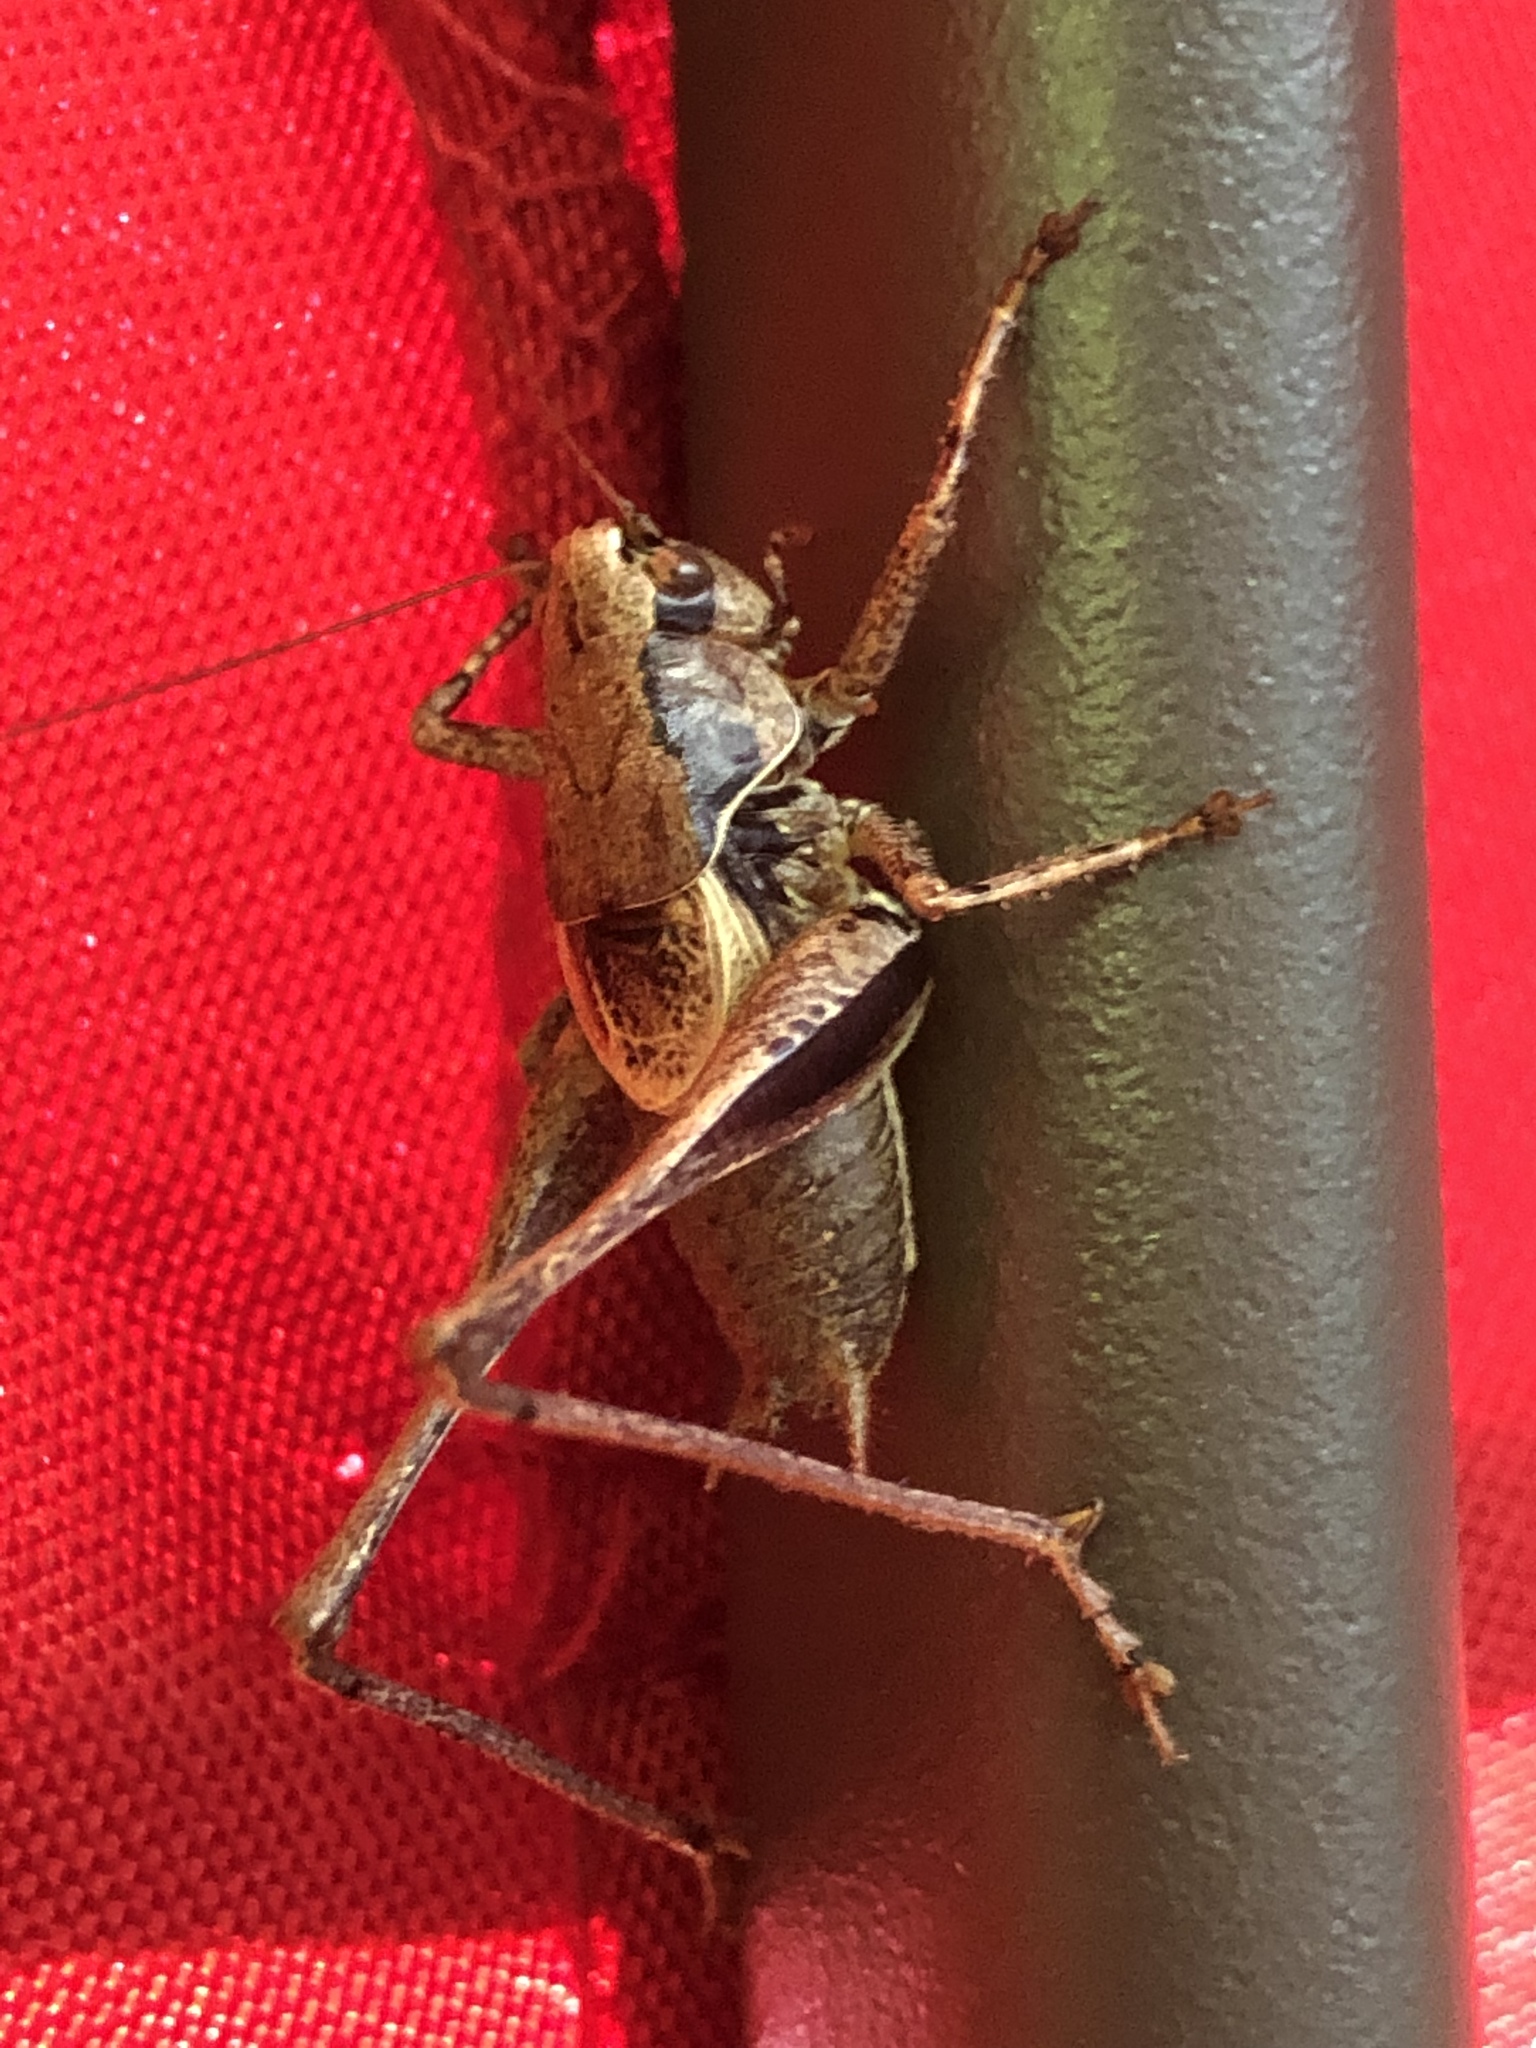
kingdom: Animalia
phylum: Arthropoda
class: Insecta
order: Orthoptera
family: Tettigoniidae
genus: Pholidoptera
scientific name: Pholidoptera griseoaptera
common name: Dark bush-cricket
